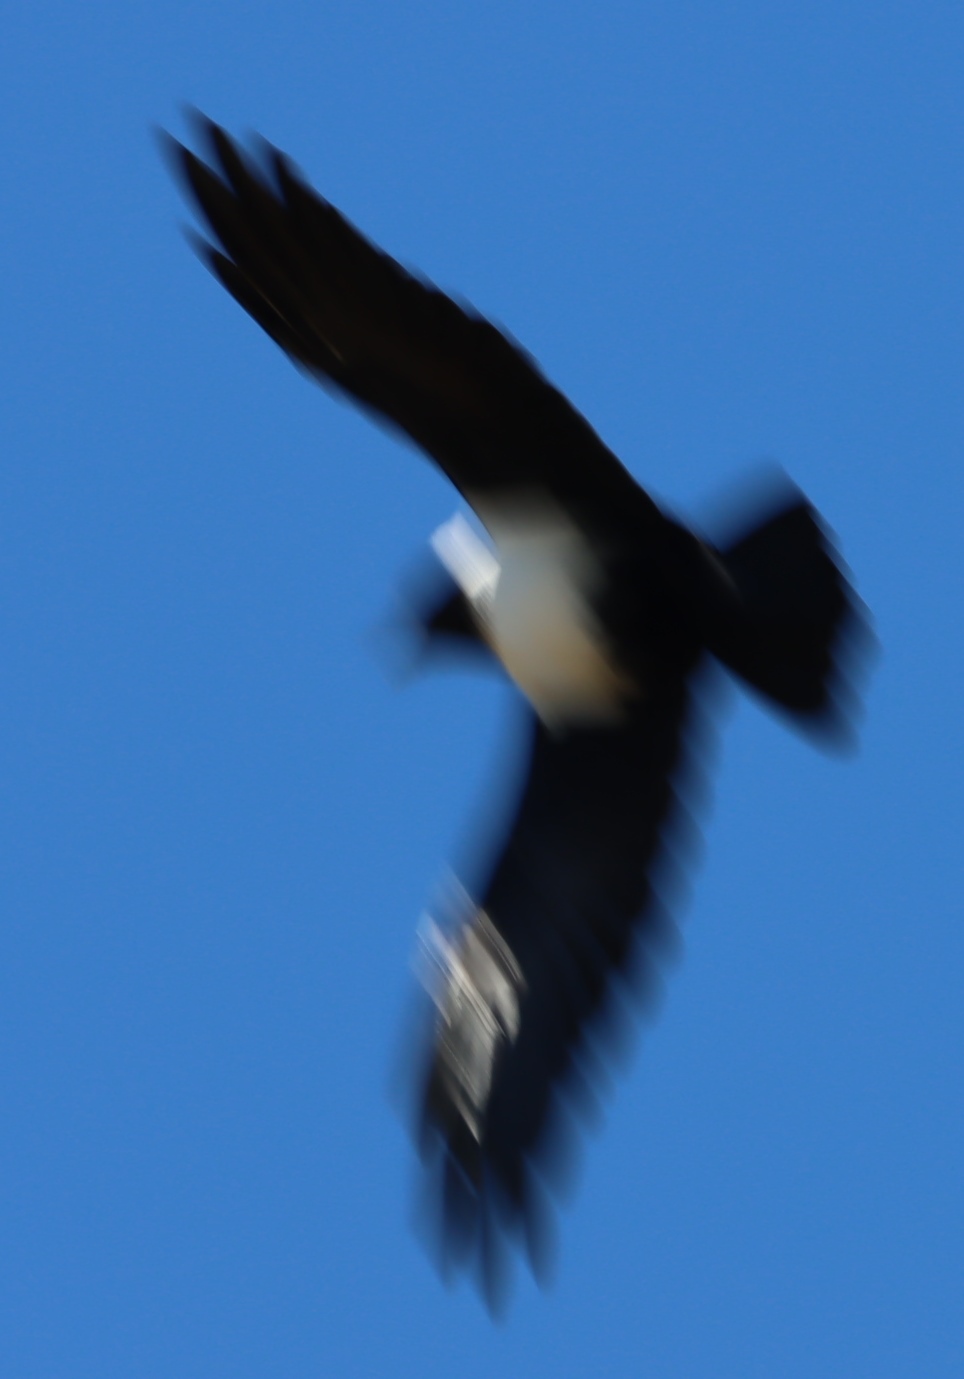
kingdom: Animalia
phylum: Chordata
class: Aves
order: Passeriformes
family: Corvidae
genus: Corvus
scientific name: Corvus albus
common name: Pied crow
